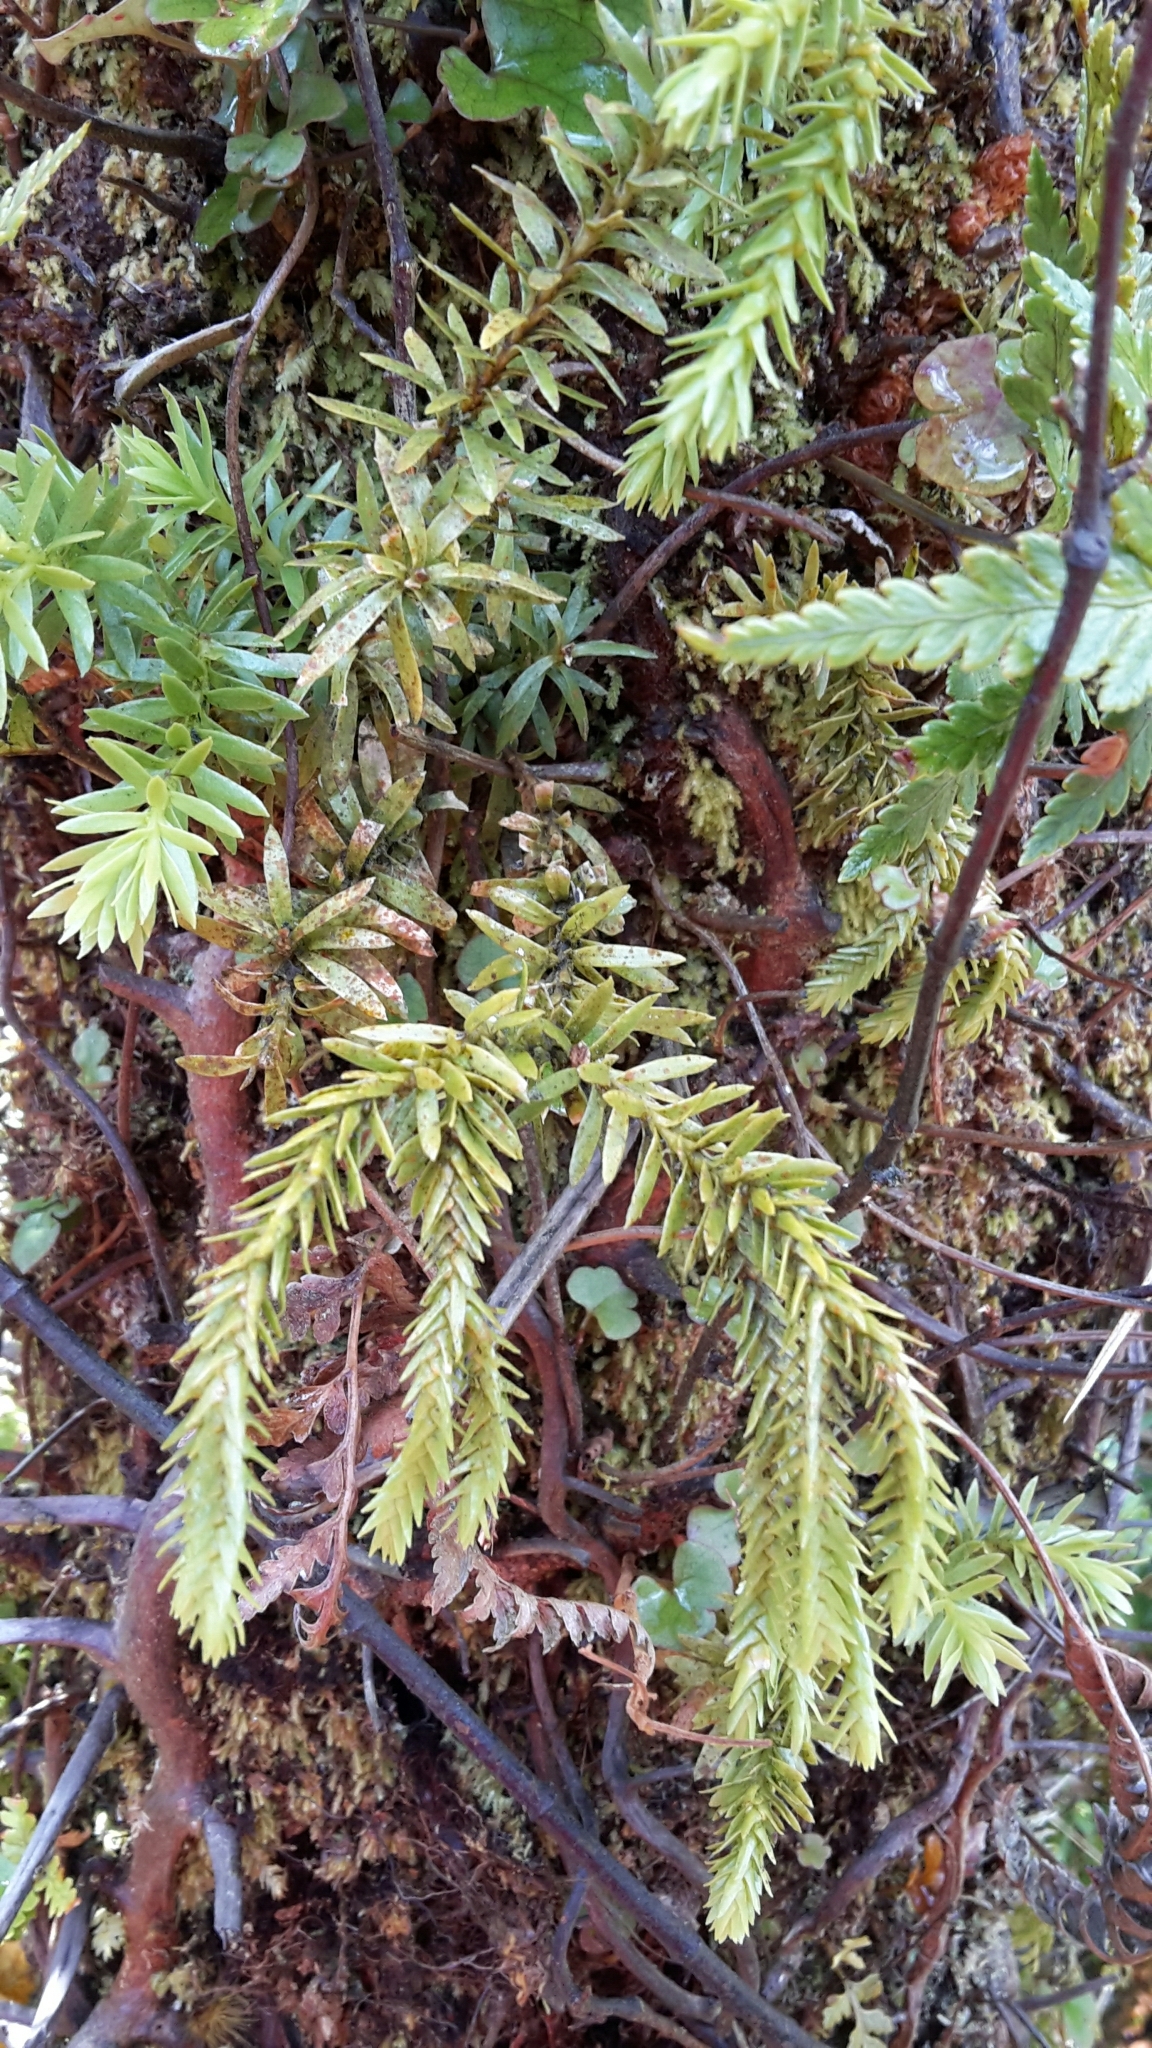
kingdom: Plantae
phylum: Tracheophyta
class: Lycopodiopsida
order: Lycopodiales
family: Lycopodiaceae
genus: Phlegmariurus
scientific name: Phlegmariurus varius
